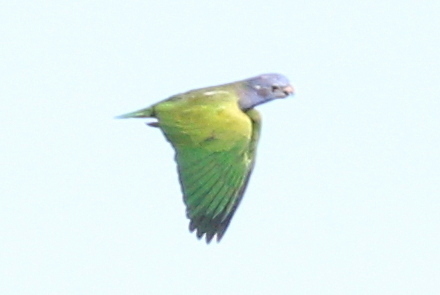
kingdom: Animalia
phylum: Chordata
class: Aves
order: Psittaciformes
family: Psittacidae
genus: Pionus
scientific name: Pionus menstruus
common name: Blue-headed parrot
